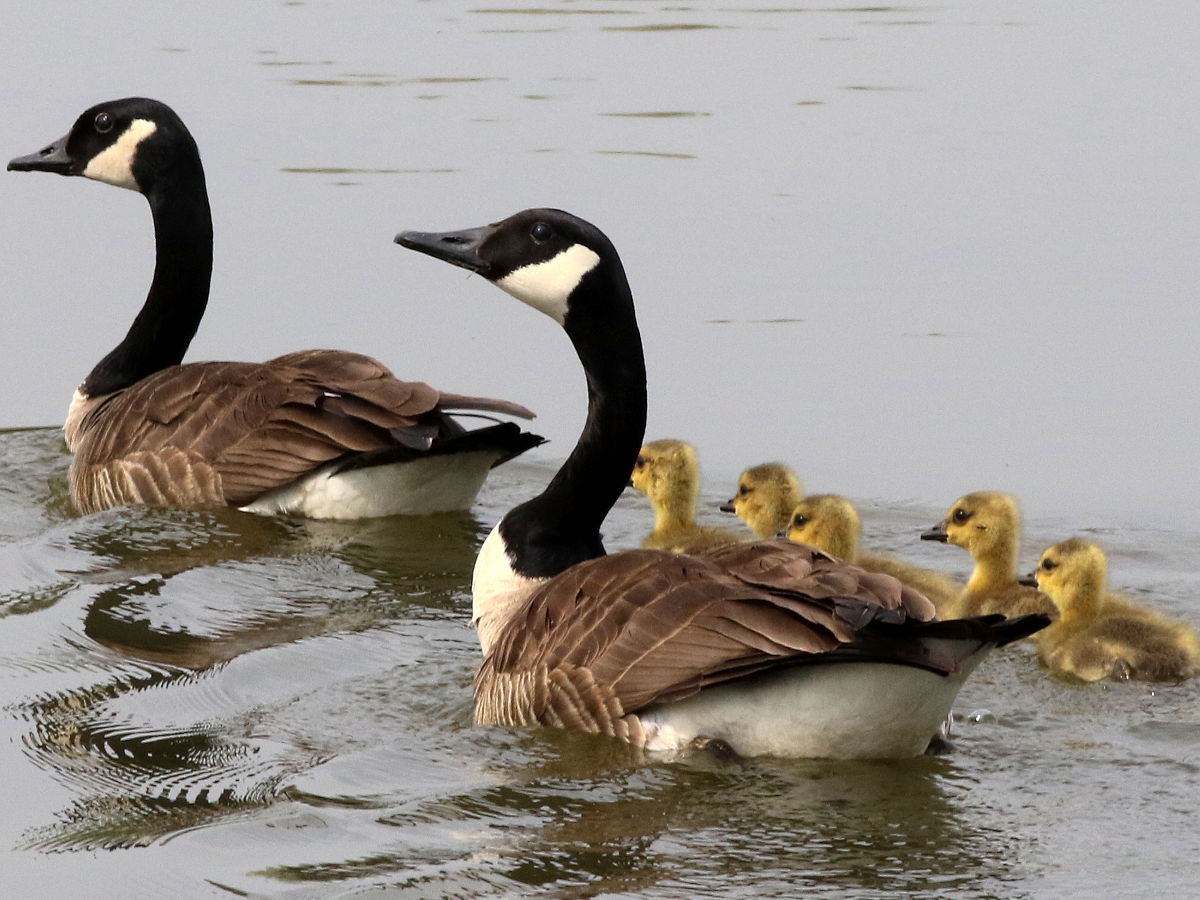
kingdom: Animalia
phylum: Chordata
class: Aves
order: Anseriformes
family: Anatidae
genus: Branta
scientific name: Branta canadensis
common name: Canada goose
